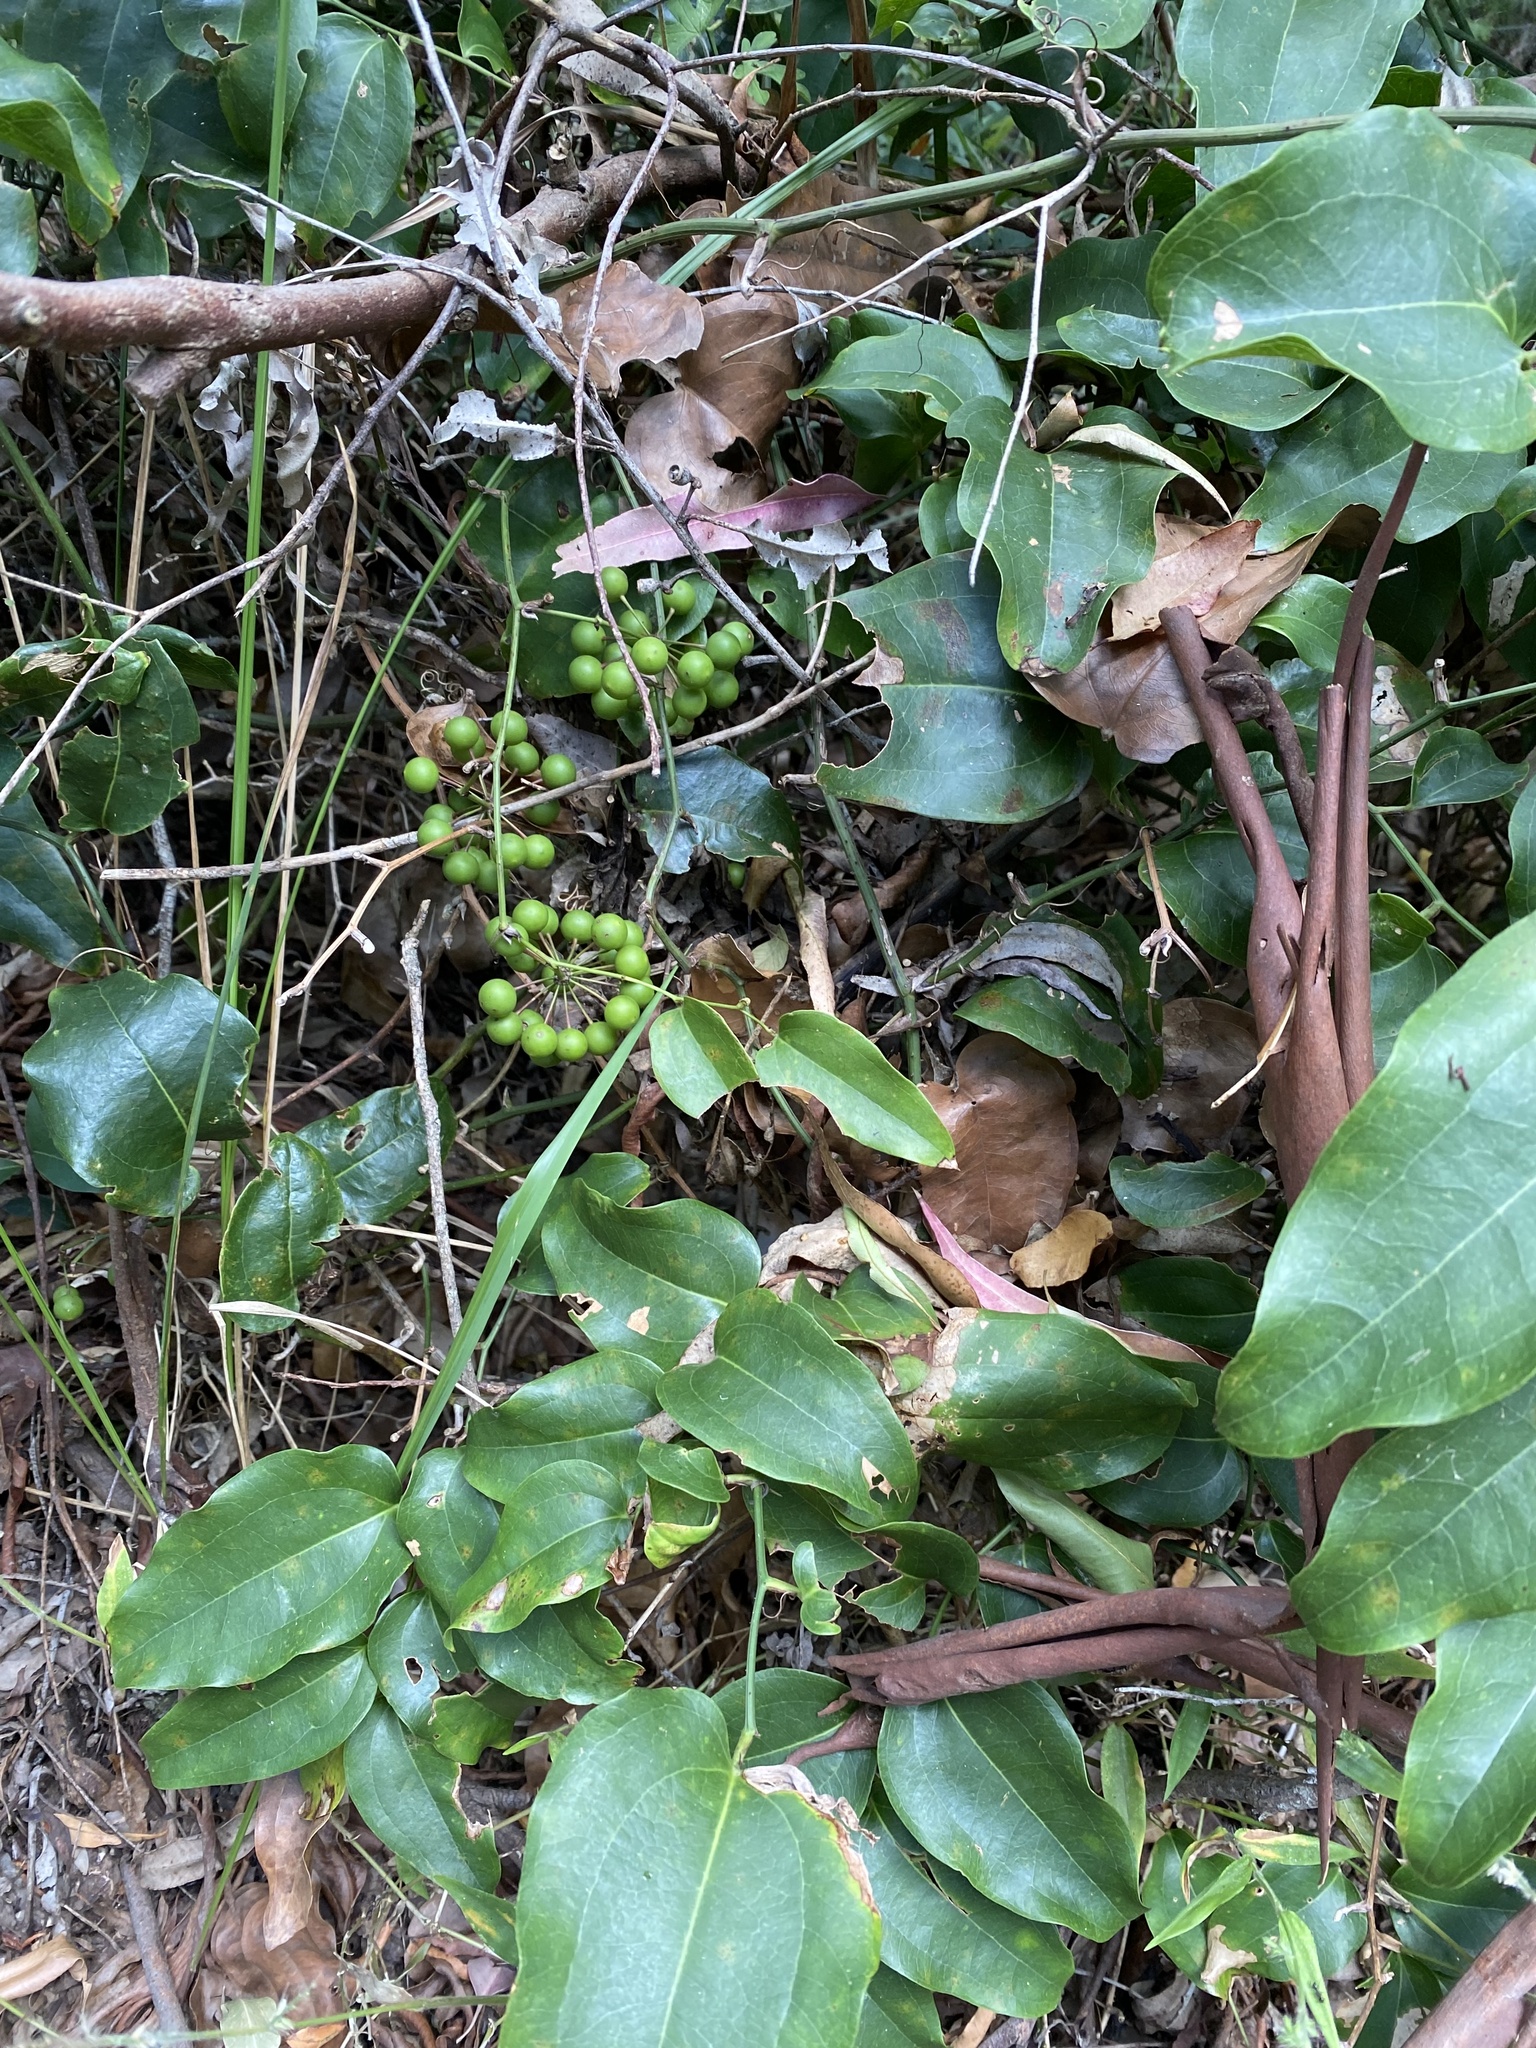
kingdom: Plantae
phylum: Tracheophyta
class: Liliopsida
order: Liliales
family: Smilacaceae
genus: Smilax
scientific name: Smilax australis
